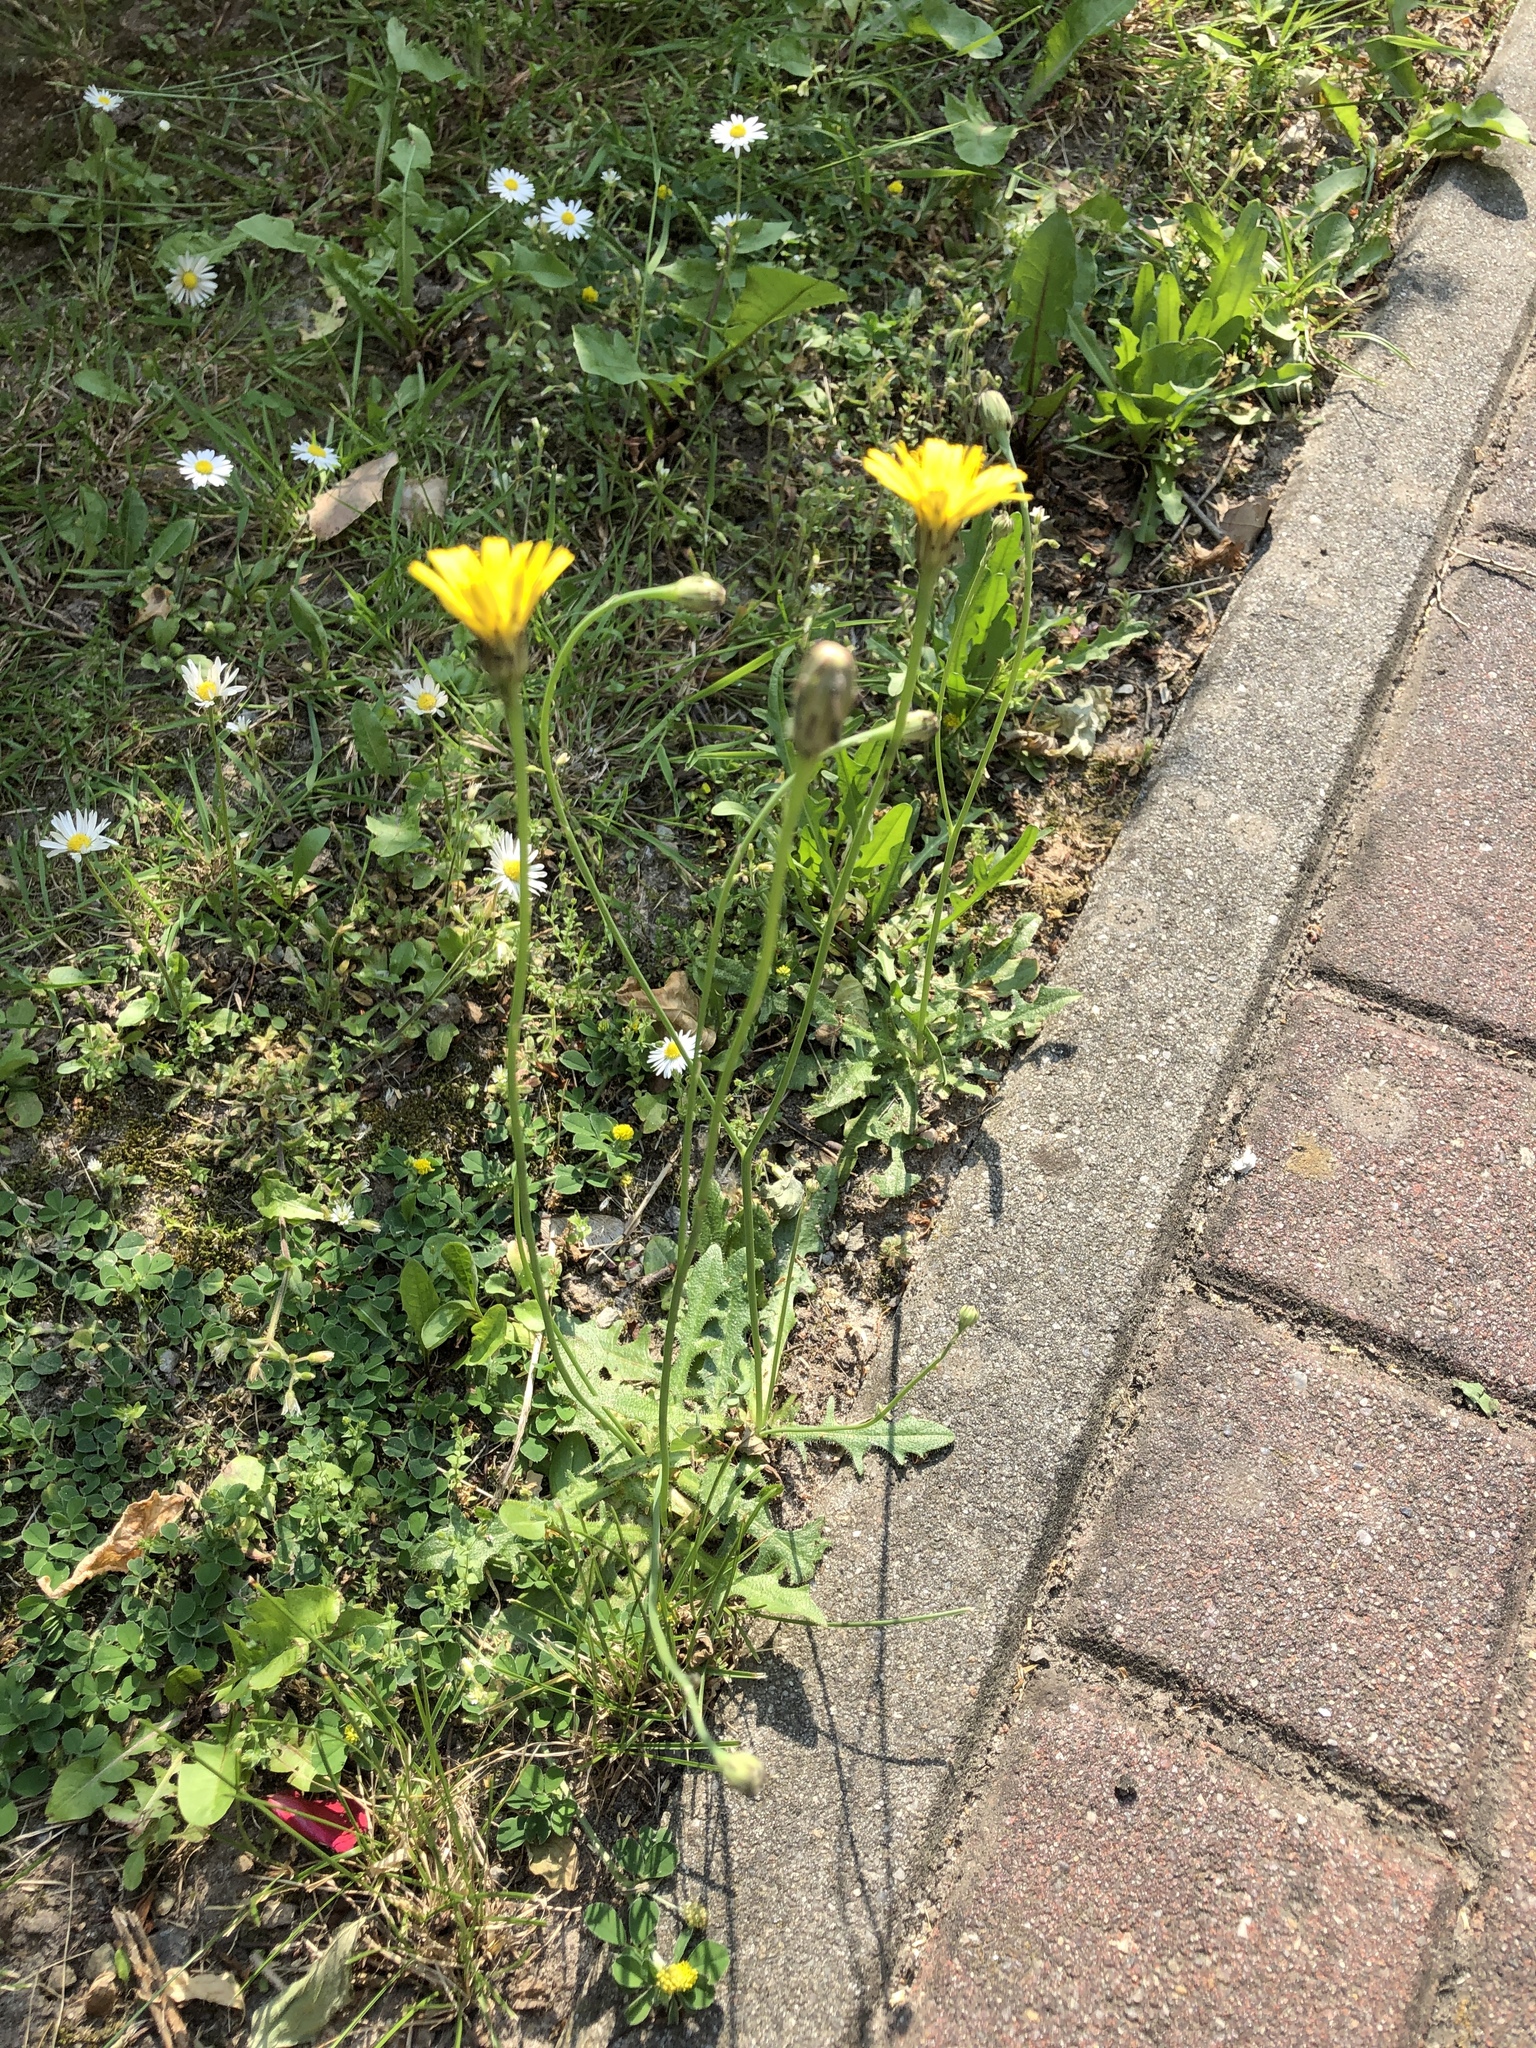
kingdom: Plantae
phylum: Tracheophyta
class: Magnoliopsida
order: Asterales
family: Asteraceae
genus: Hypochaeris
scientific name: Hypochaeris radicata
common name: Flatweed
